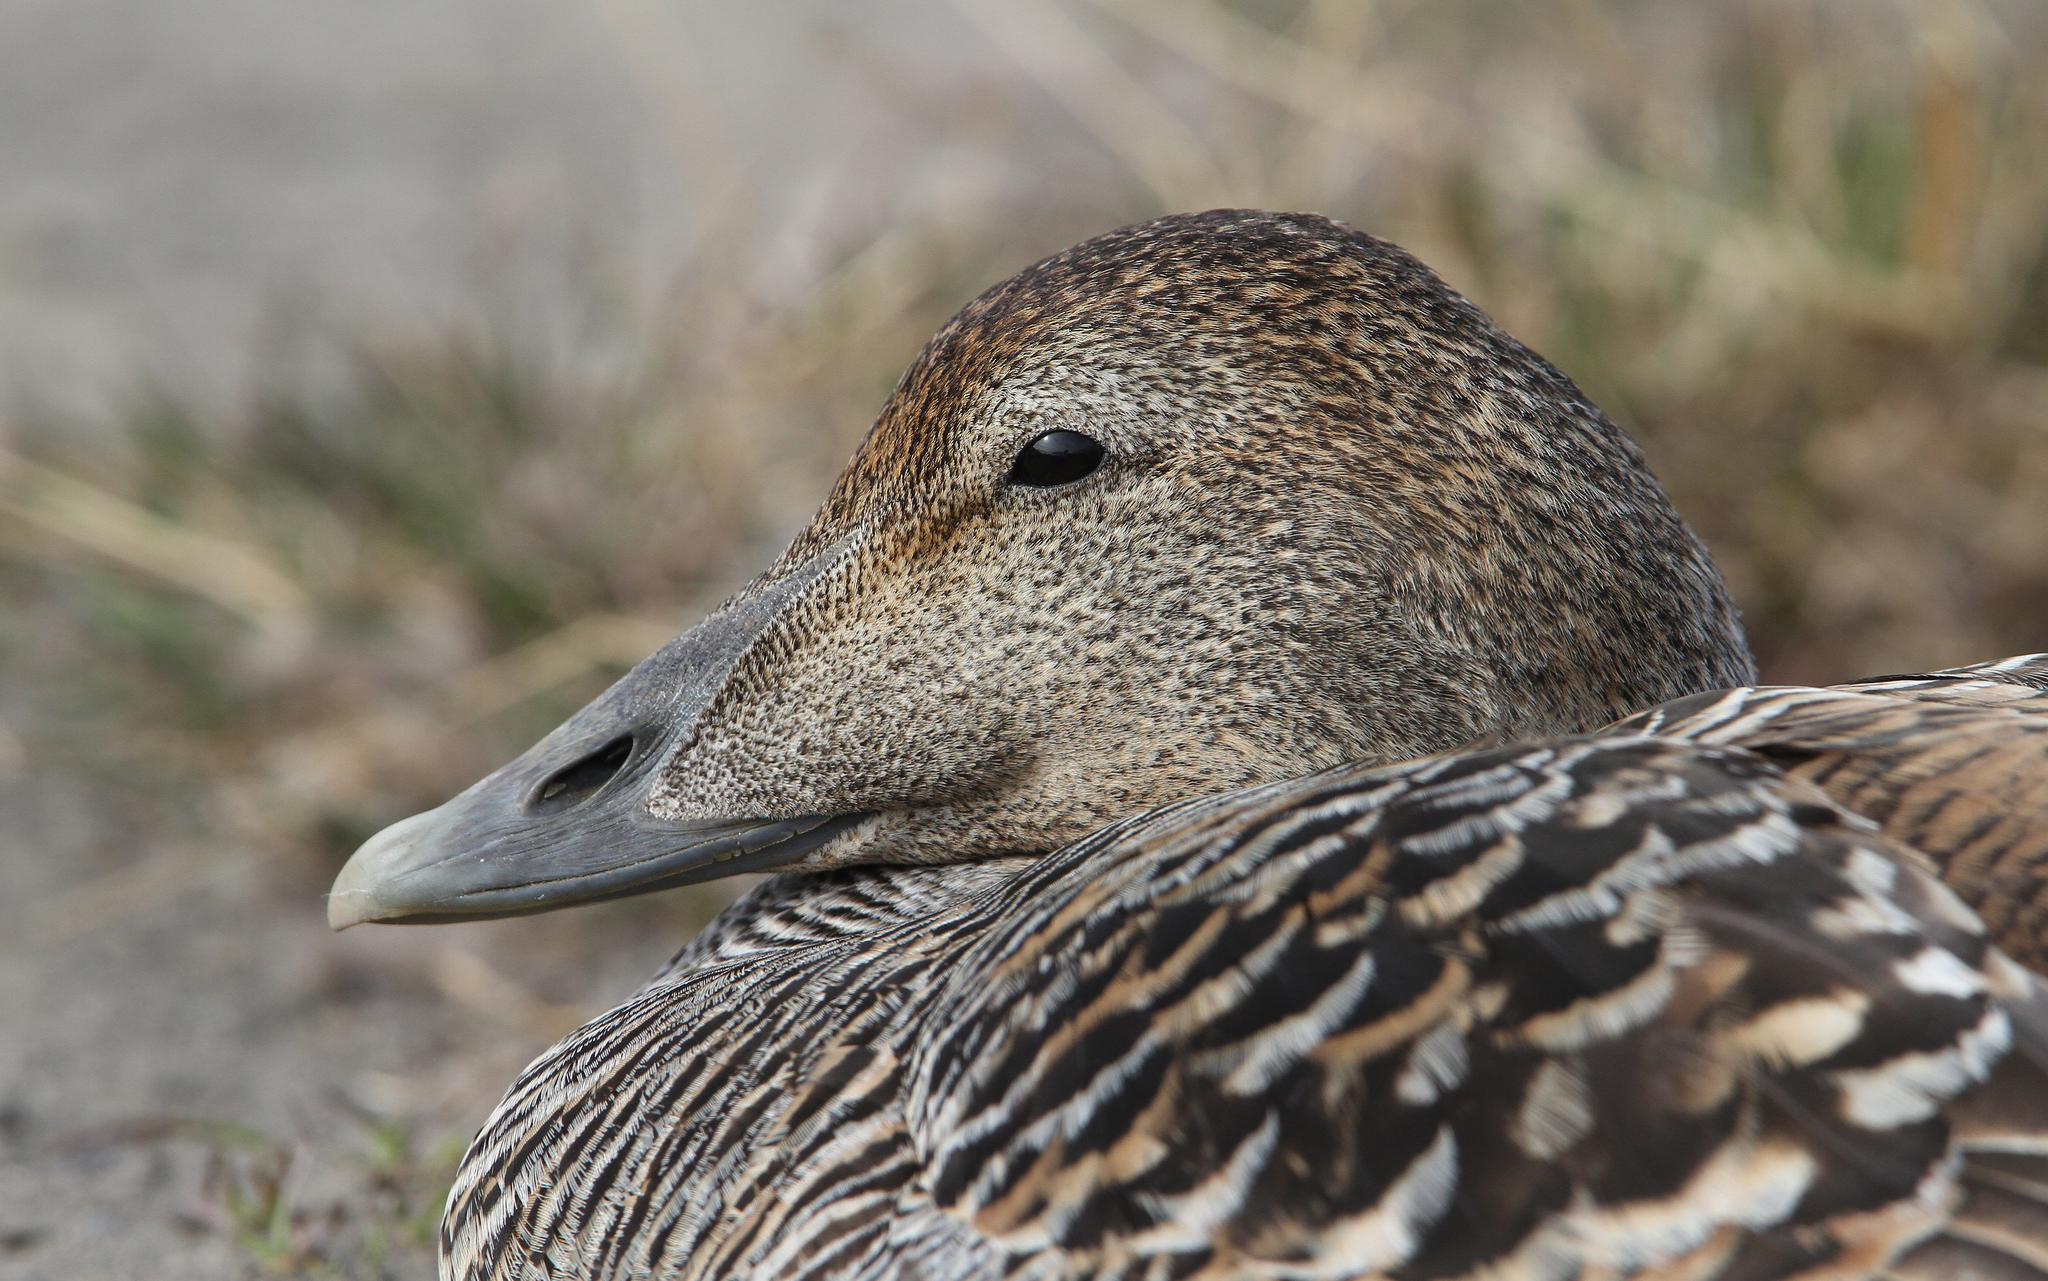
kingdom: Animalia
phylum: Chordata
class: Aves
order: Anseriformes
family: Anatidae
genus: Somateria
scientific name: Somateria mollissima
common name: Common eider
